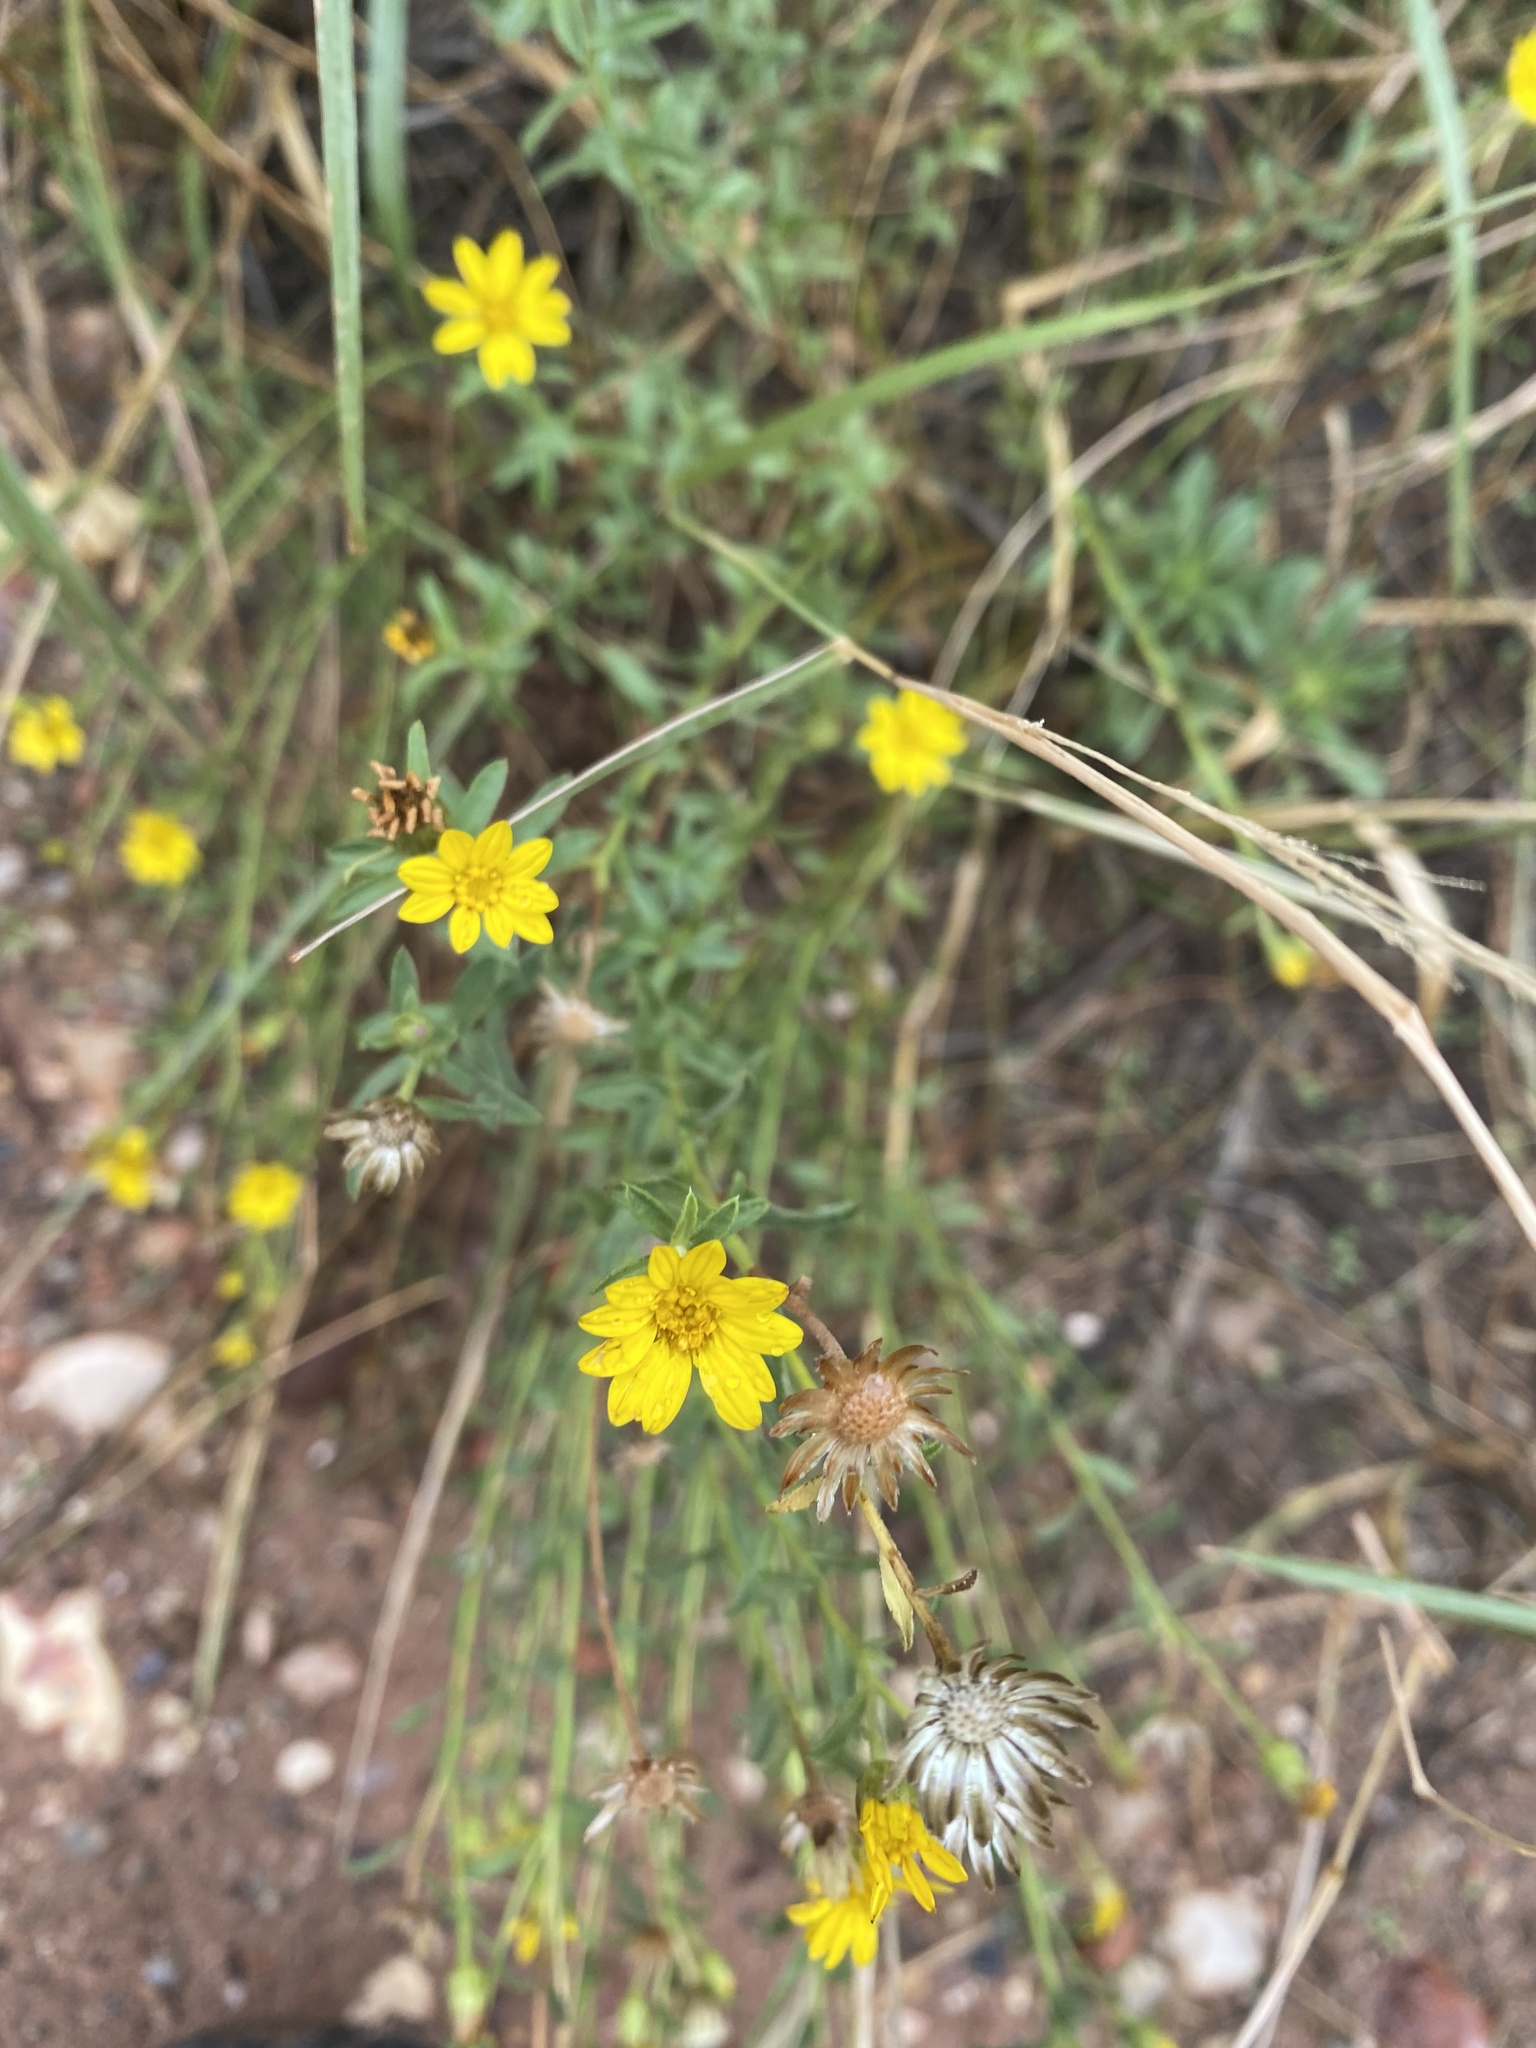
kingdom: Plantae
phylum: Tracheophyta
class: Magnoliopsida
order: Asterales
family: Asteraceae
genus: Heterotheca
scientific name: Heterotheca polothrix
